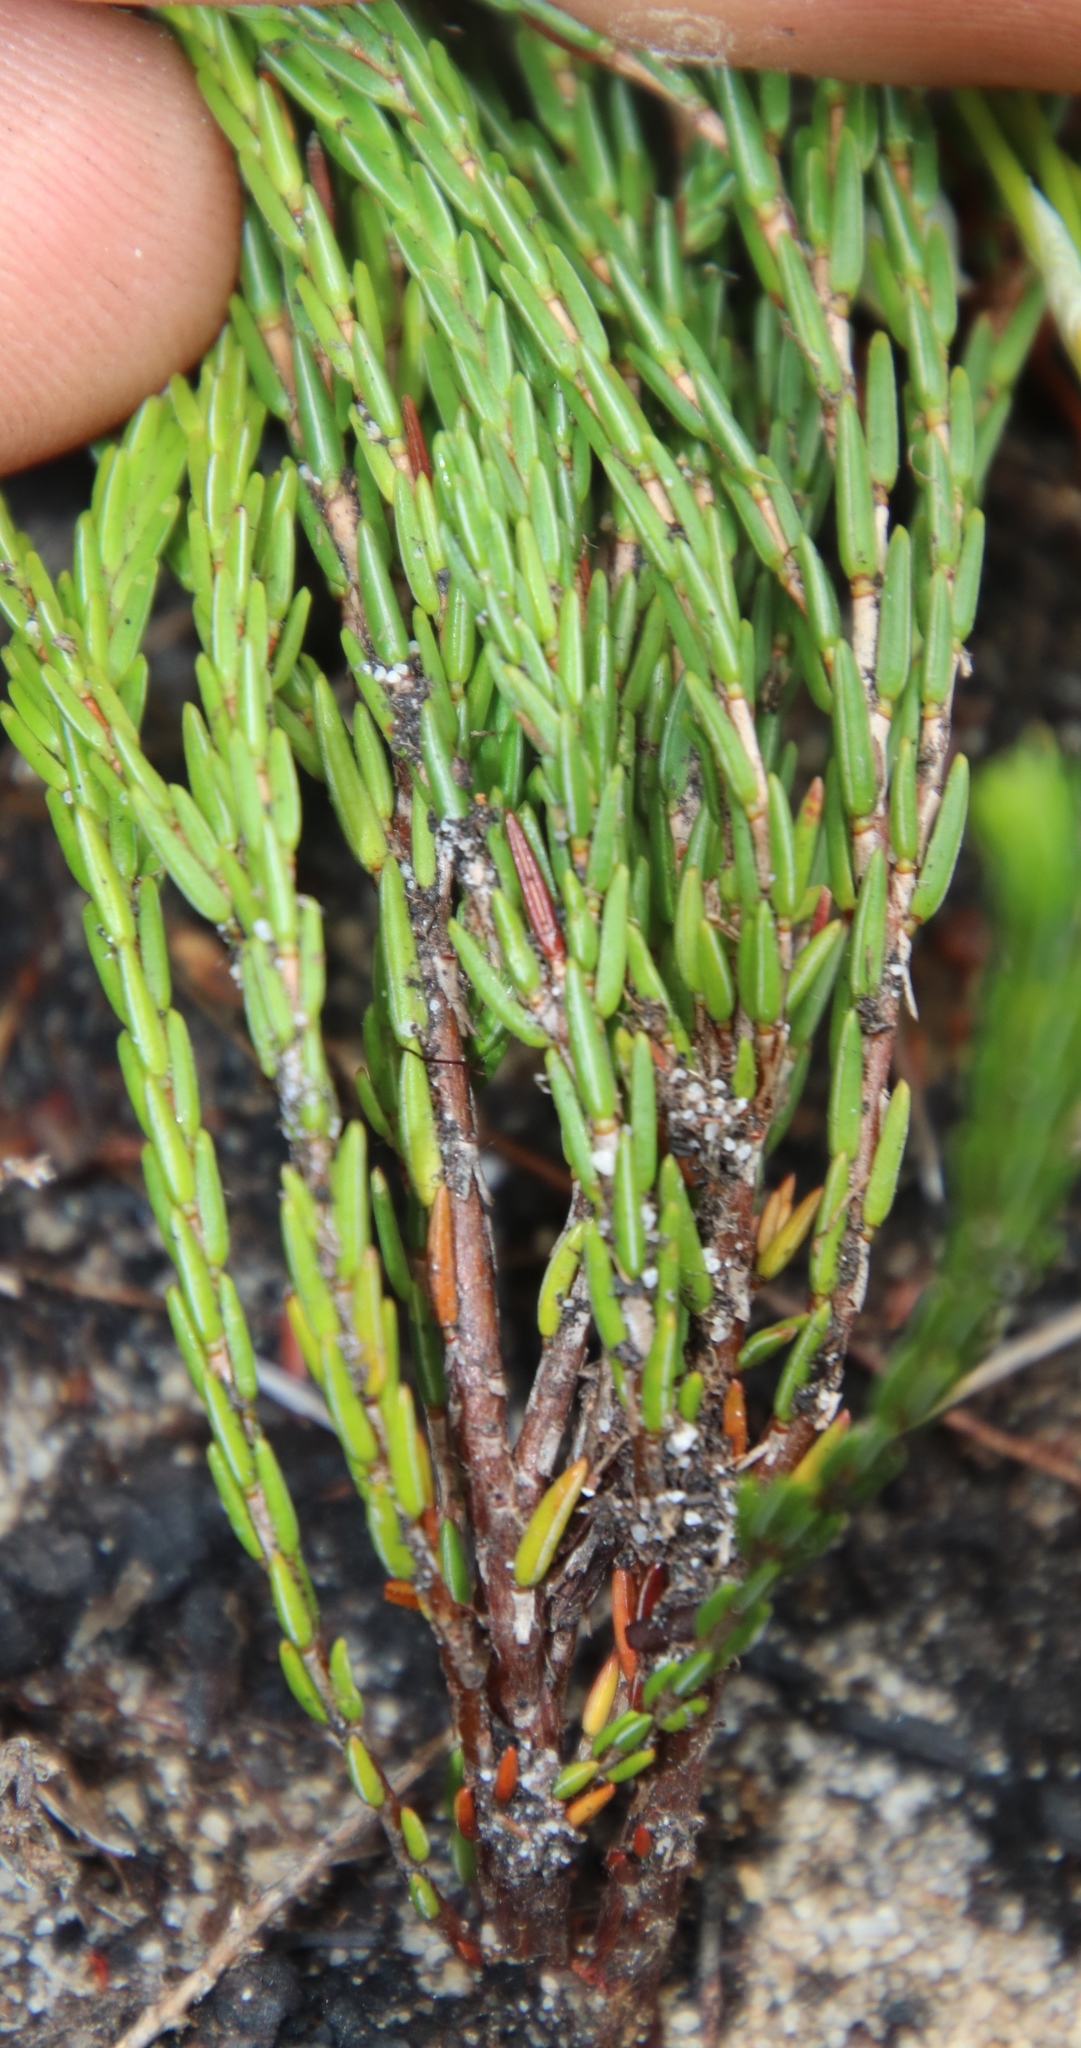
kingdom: Plantae
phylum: Tracheophyta
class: Magnoliopsida
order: Ericales
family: Ericaceae
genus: Erica
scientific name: Erica palliiflora
